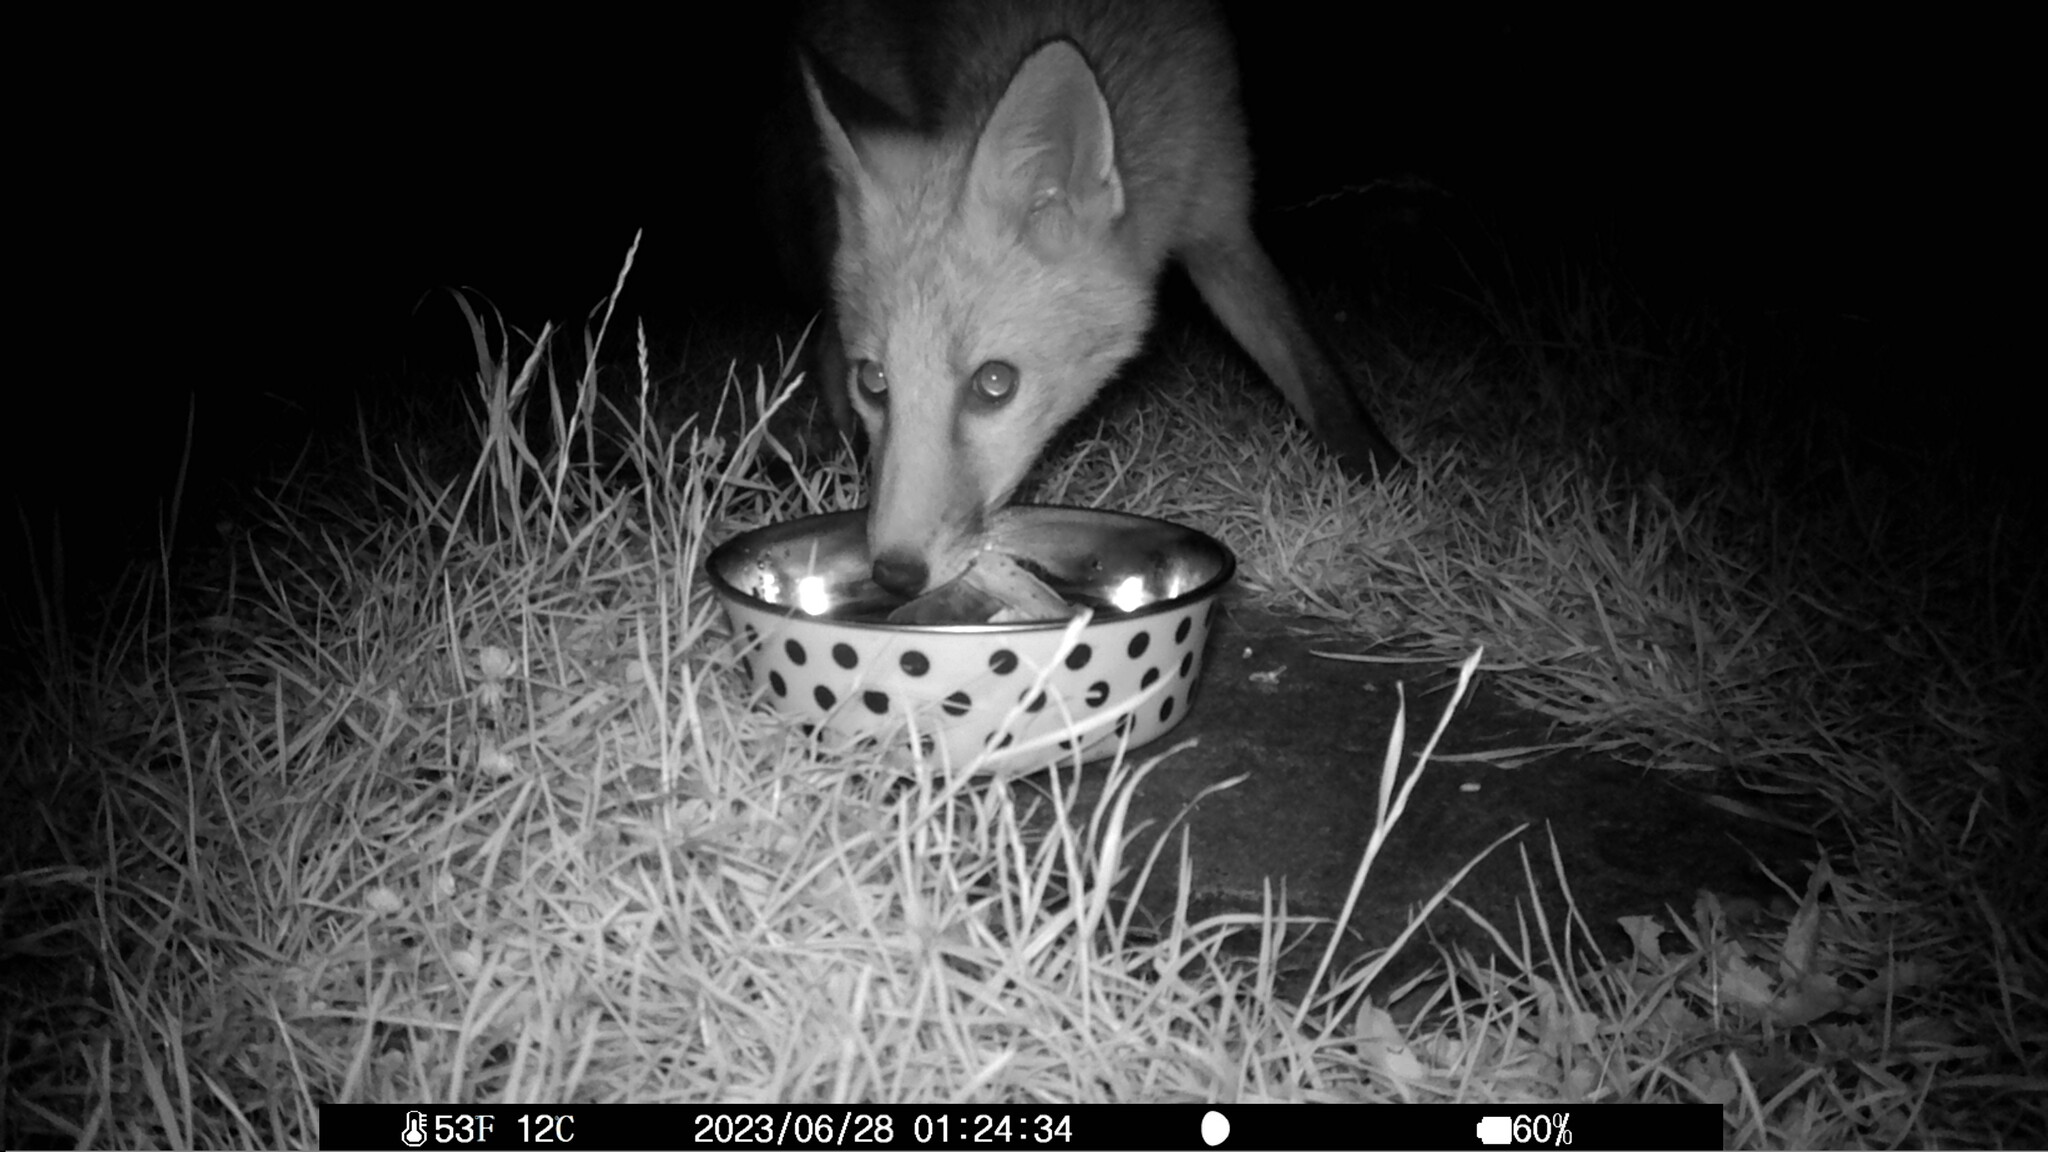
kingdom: Animalia
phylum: Chordata
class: Mammalia
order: Carnivora
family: Canidae
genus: Vulpes
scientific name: Vulpes vulpes
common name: Red fox
